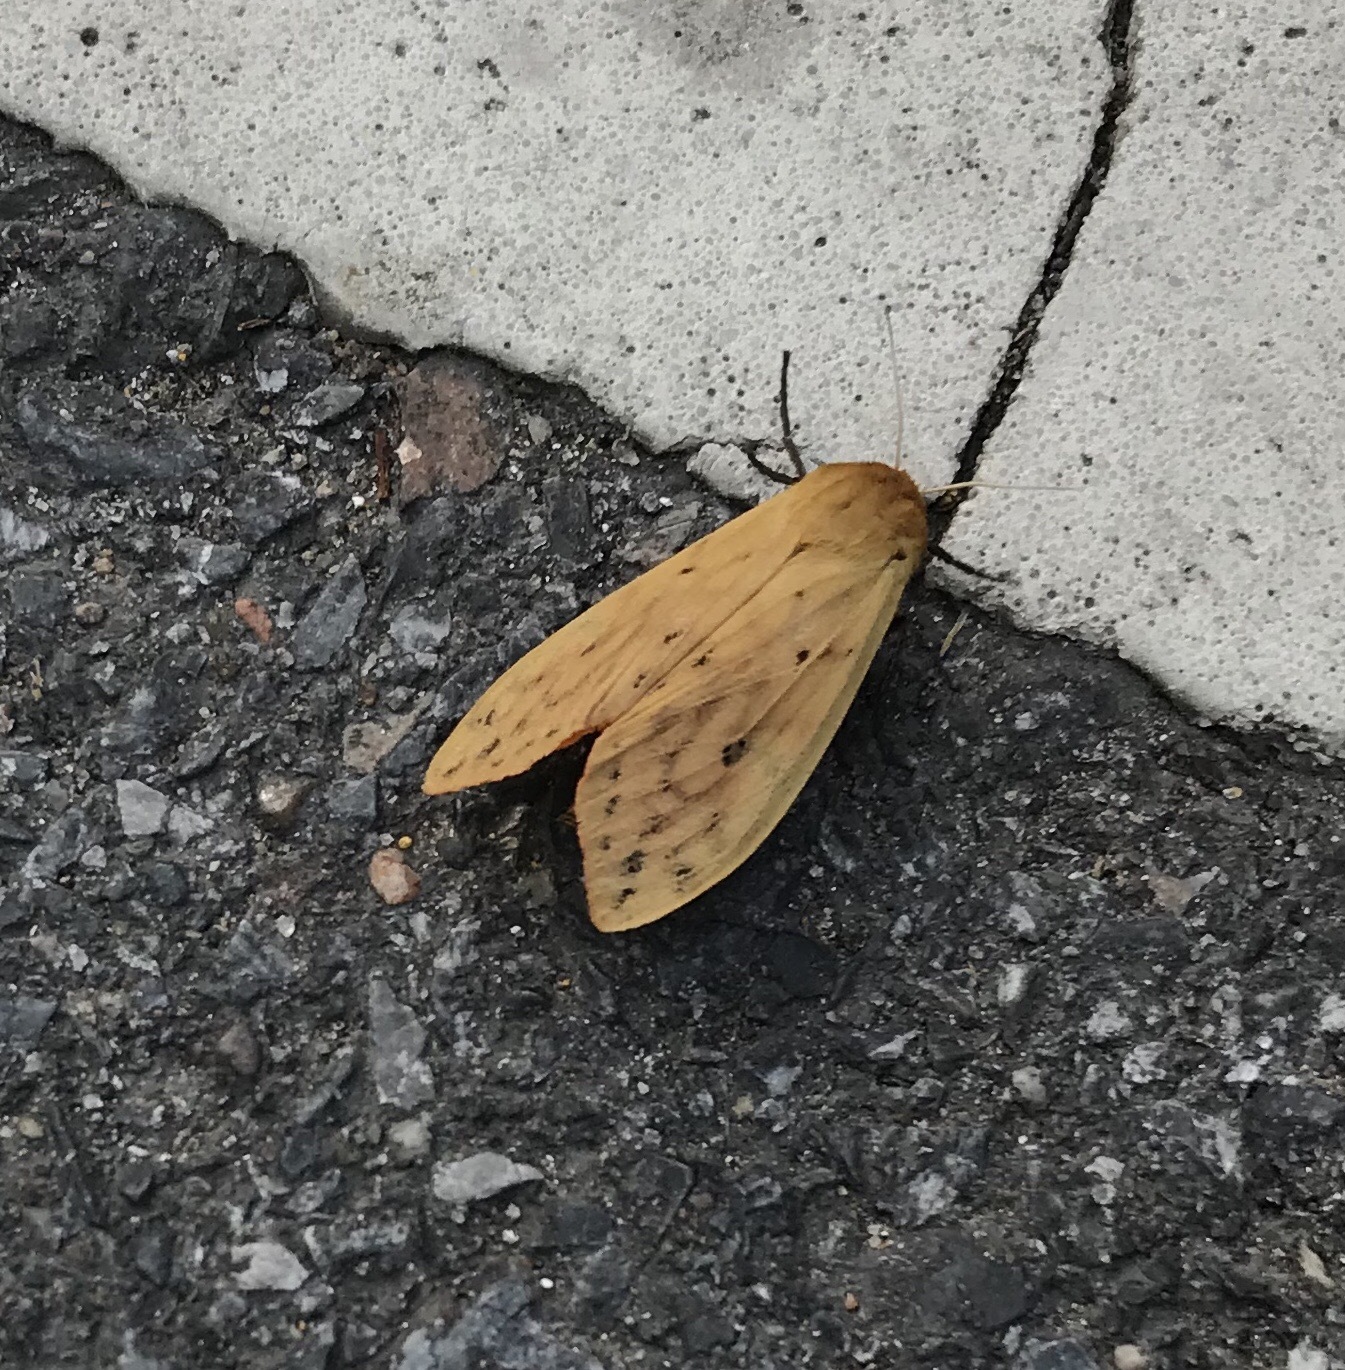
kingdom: Animalia
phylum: Arthropoda
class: Insecta
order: Lepidoptera
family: Erebidae
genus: Pyrrharctia
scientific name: Pyrrharctia isabella
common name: Isabella tiger moth
